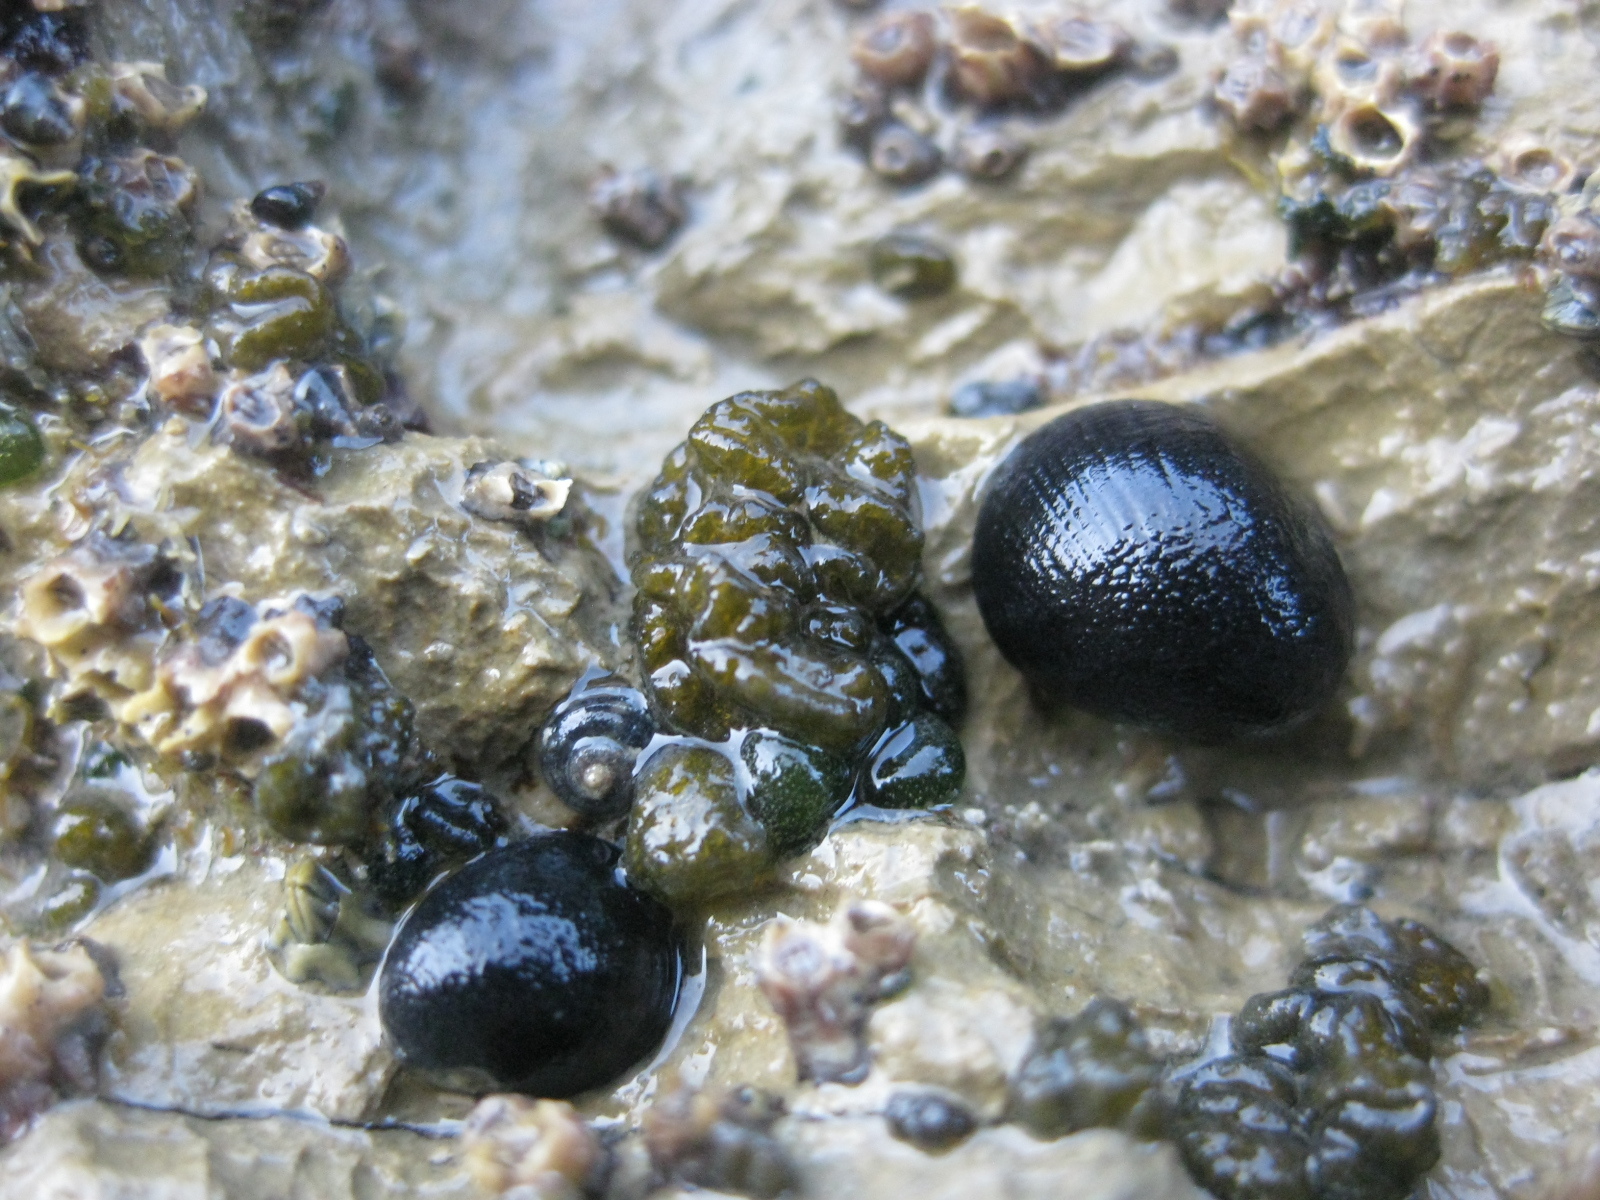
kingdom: Animalia
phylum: Mollusca
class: Gastropoda
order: Littorinimorpha
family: Littorinidae
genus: Risellopsis
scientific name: Risellopsis varia
